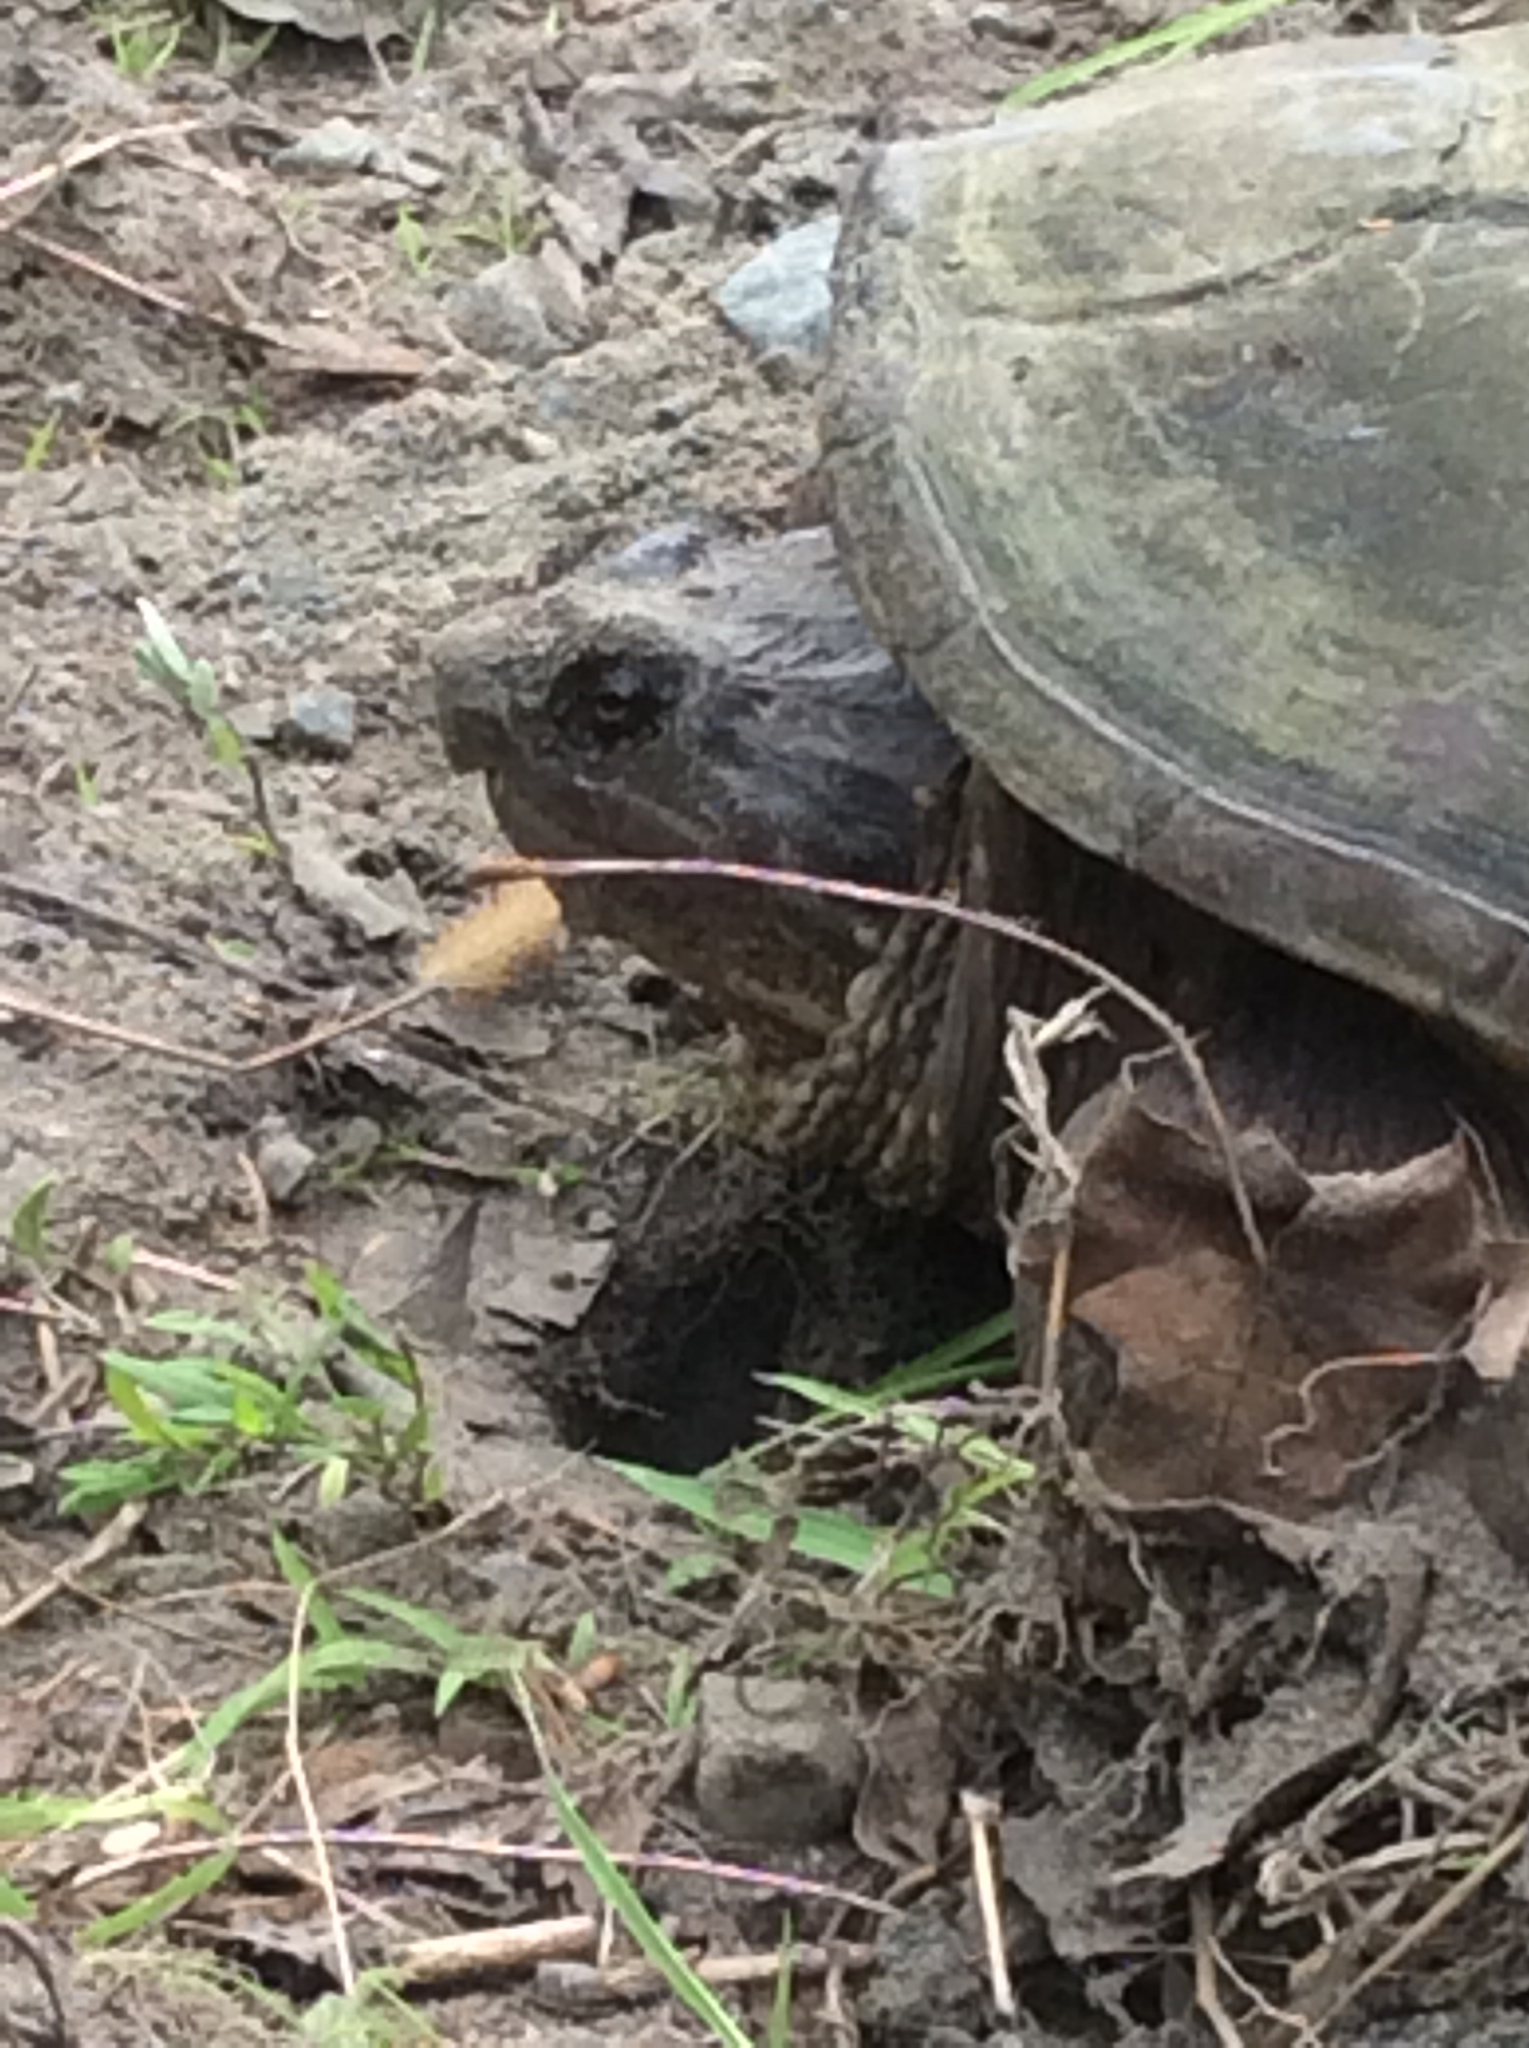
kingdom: Animalia
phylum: Chordata
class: Testudines
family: Chelydridae
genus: Chelydra
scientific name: Chelydra serpentina
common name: Common snapping turtle
